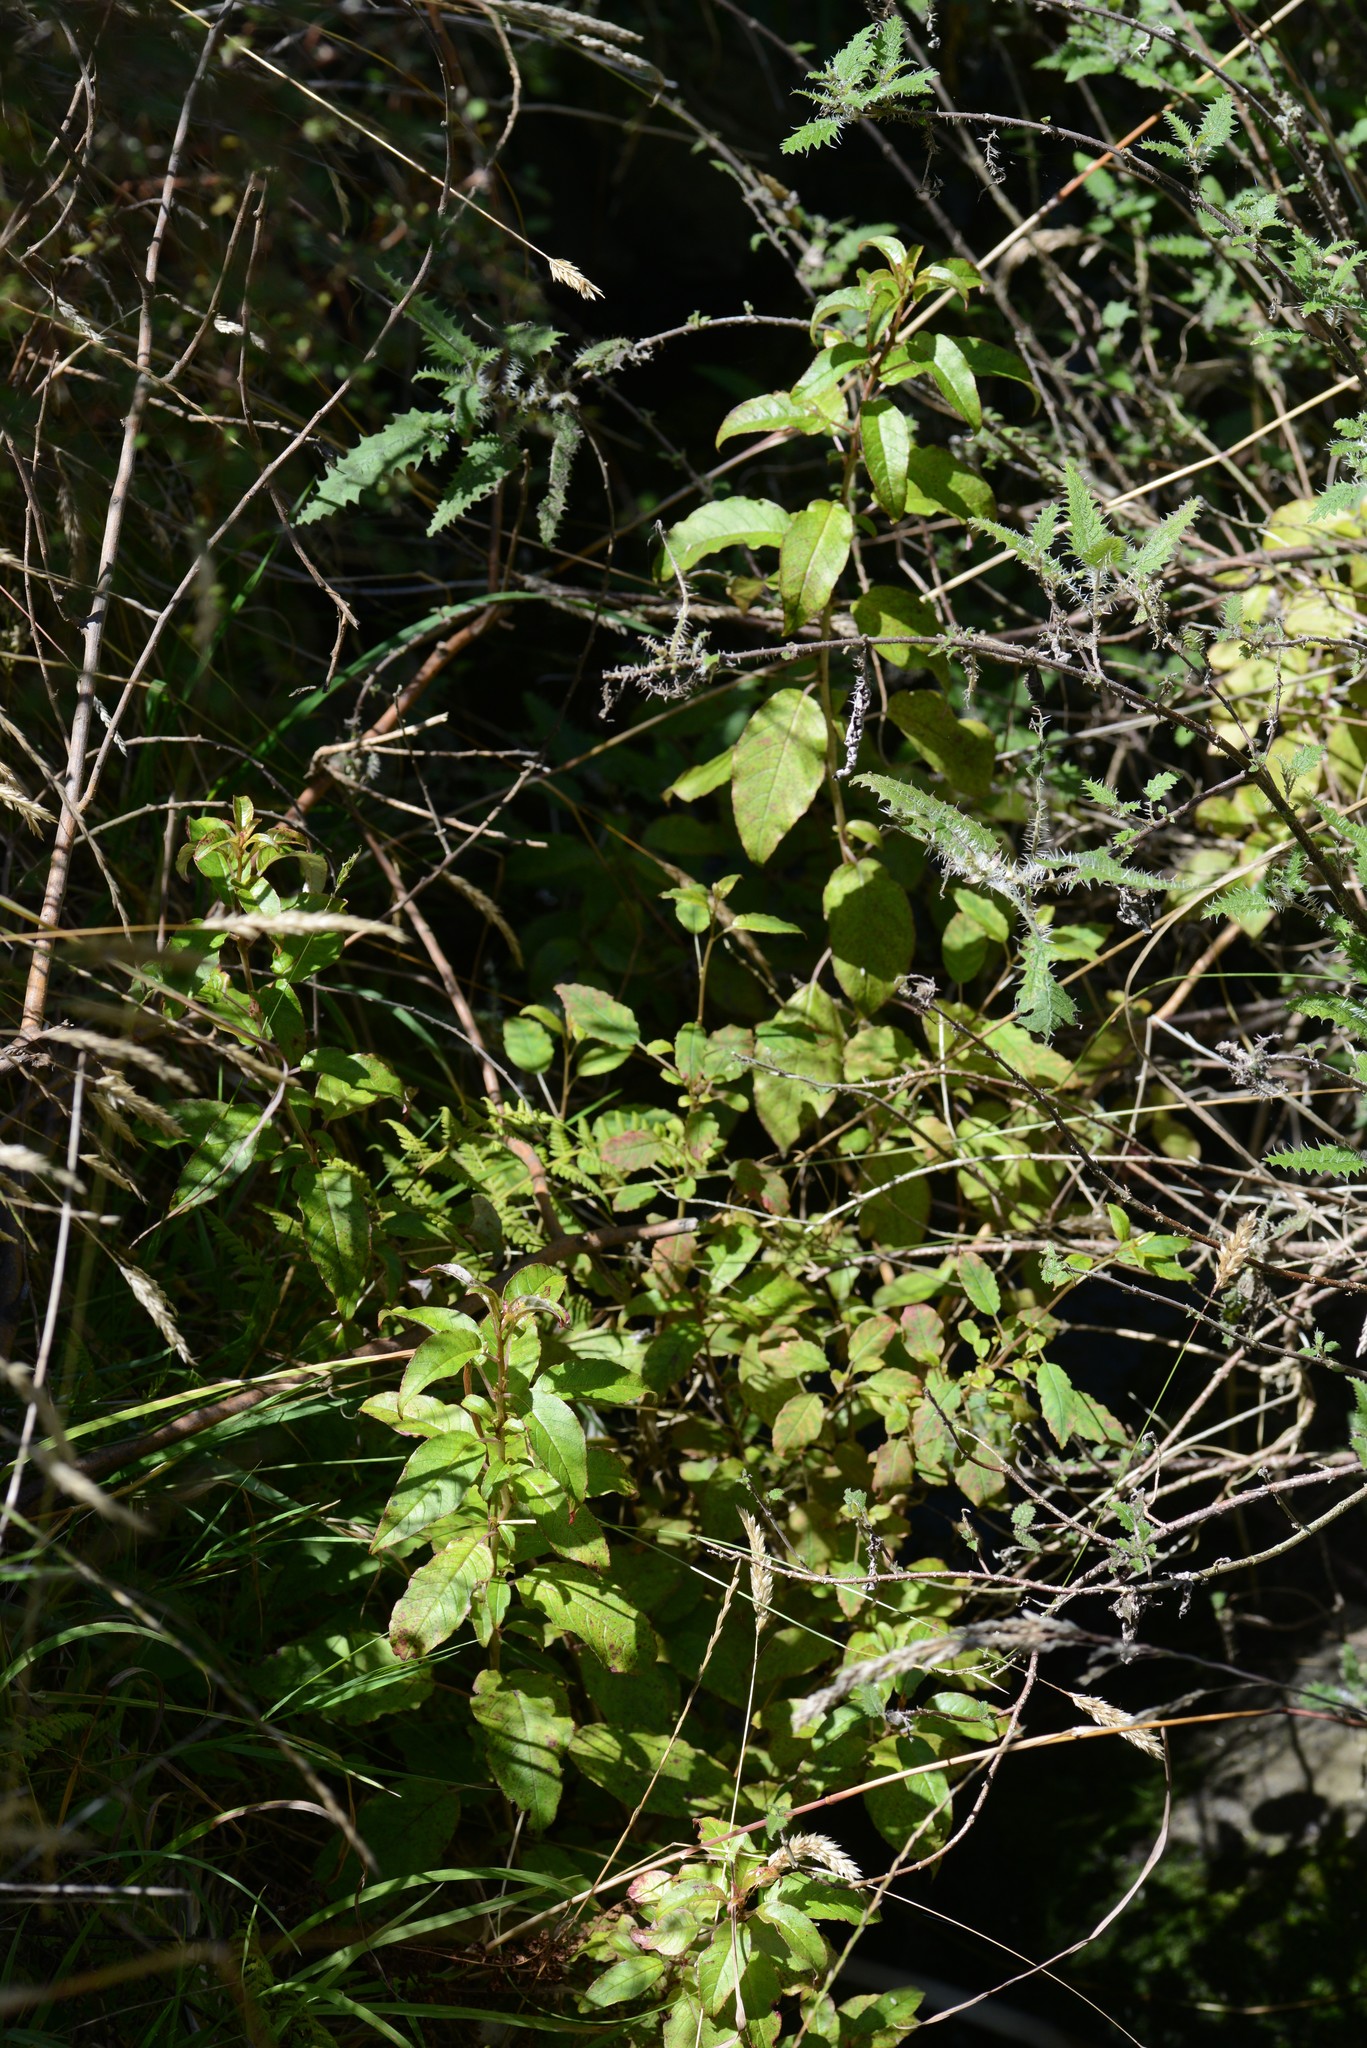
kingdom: Plantae
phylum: Tracheophyta
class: Magnoliopsida
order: Myrtales
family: Onagraceae
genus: Fuchsia
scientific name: Fuchsia excorticata
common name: Tree fuchsia
